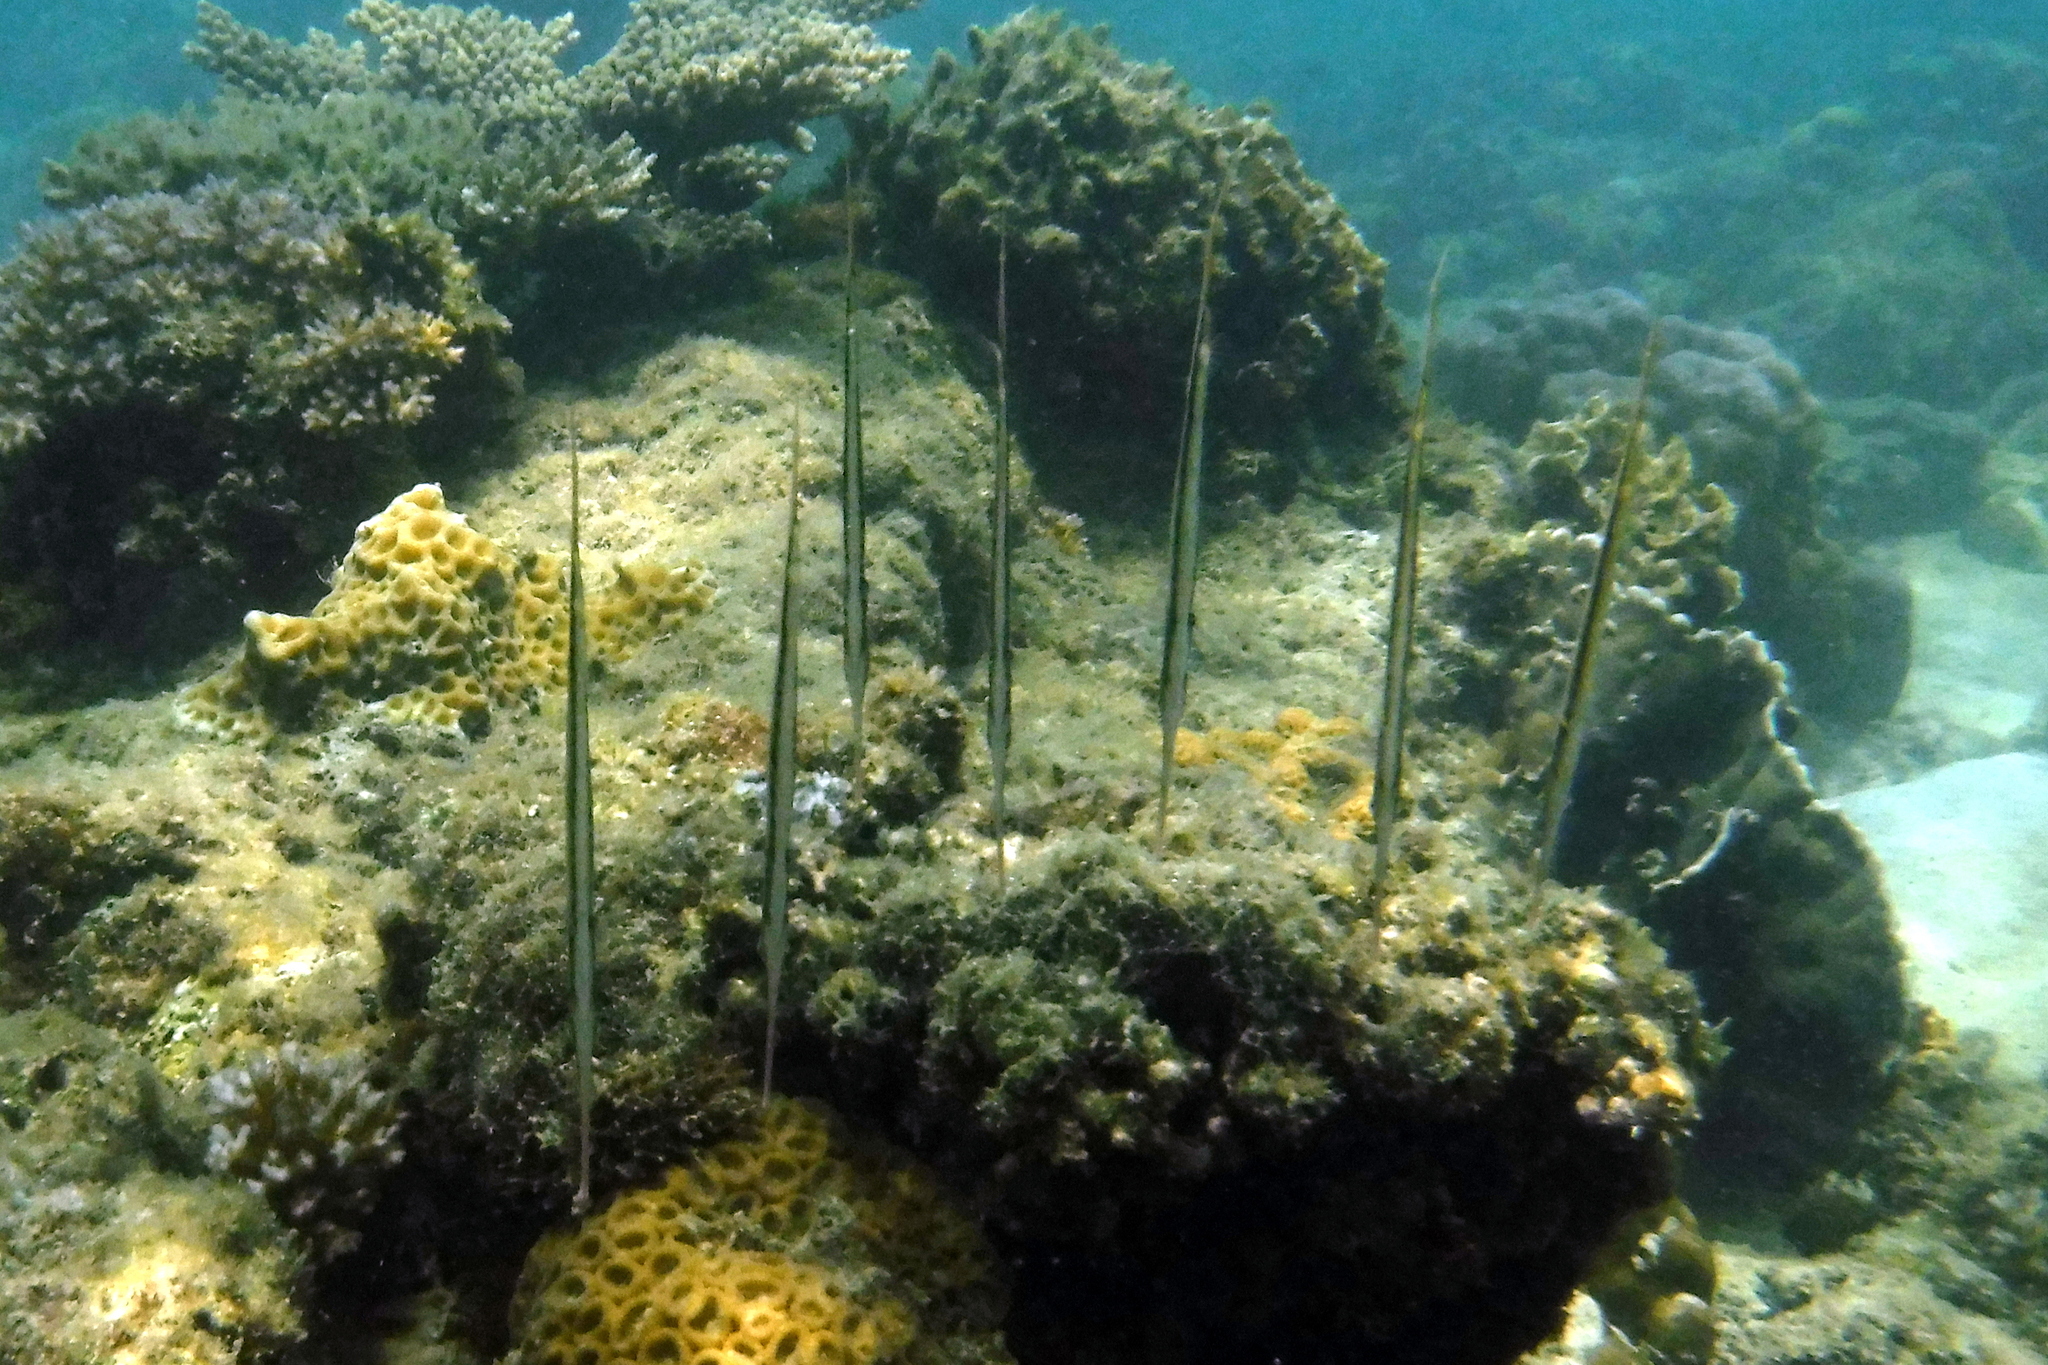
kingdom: Animalia
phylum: Chordata
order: Syngnathiformes
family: Centriscidae
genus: Aeoliscus
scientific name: Aeoliscus strigatus
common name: Canif
